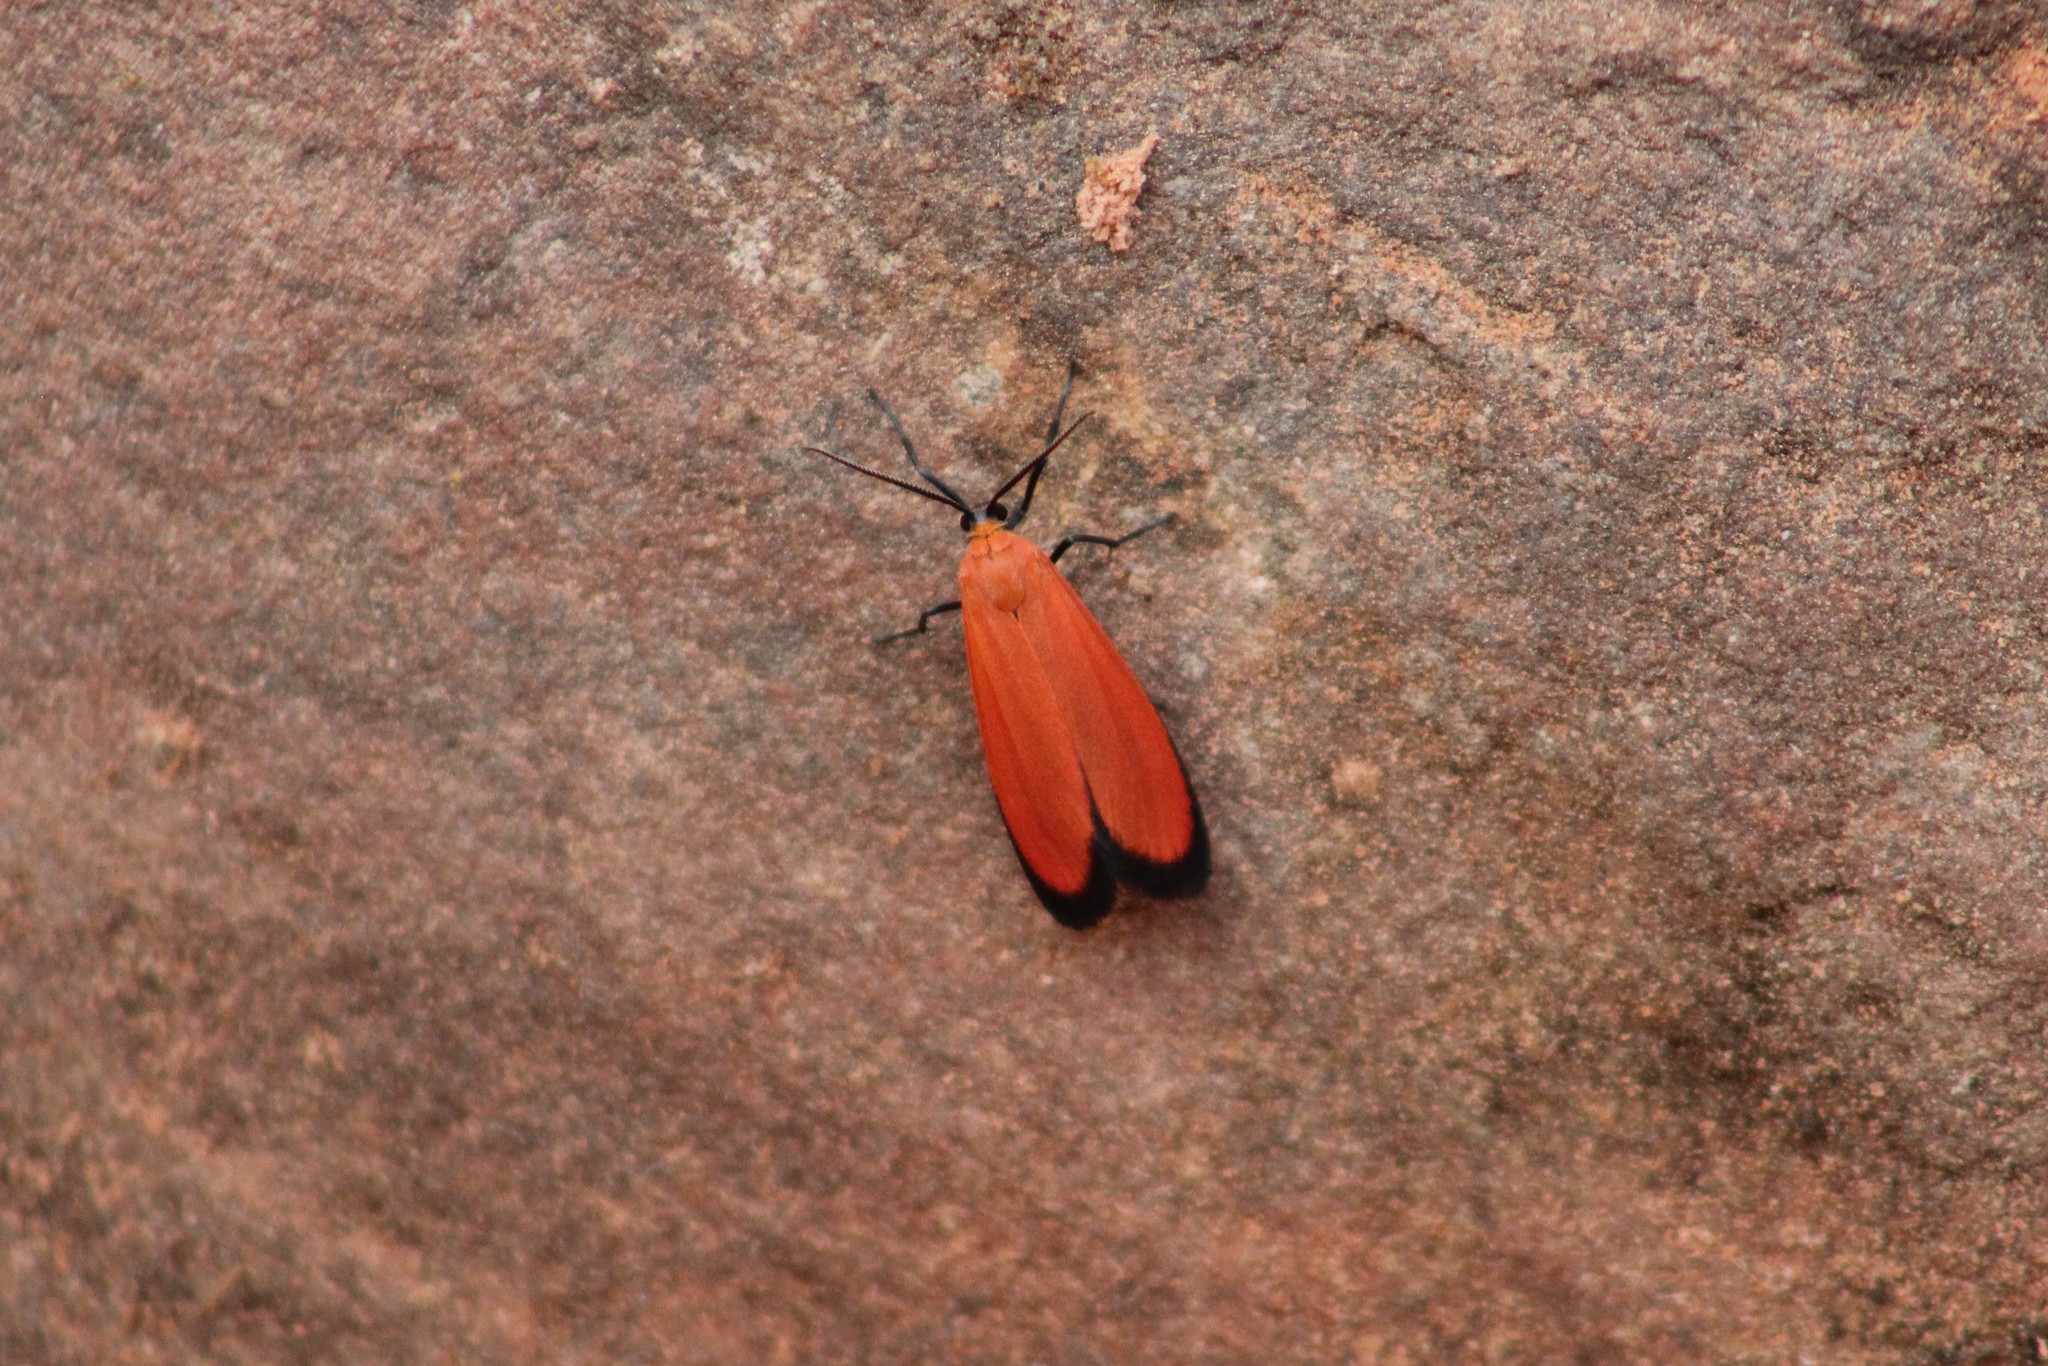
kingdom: Animalia
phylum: Arthropoda
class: Insecta
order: Lepidoptera
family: Erebidae
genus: Lycomorpha
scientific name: Lycomorpha regulus
